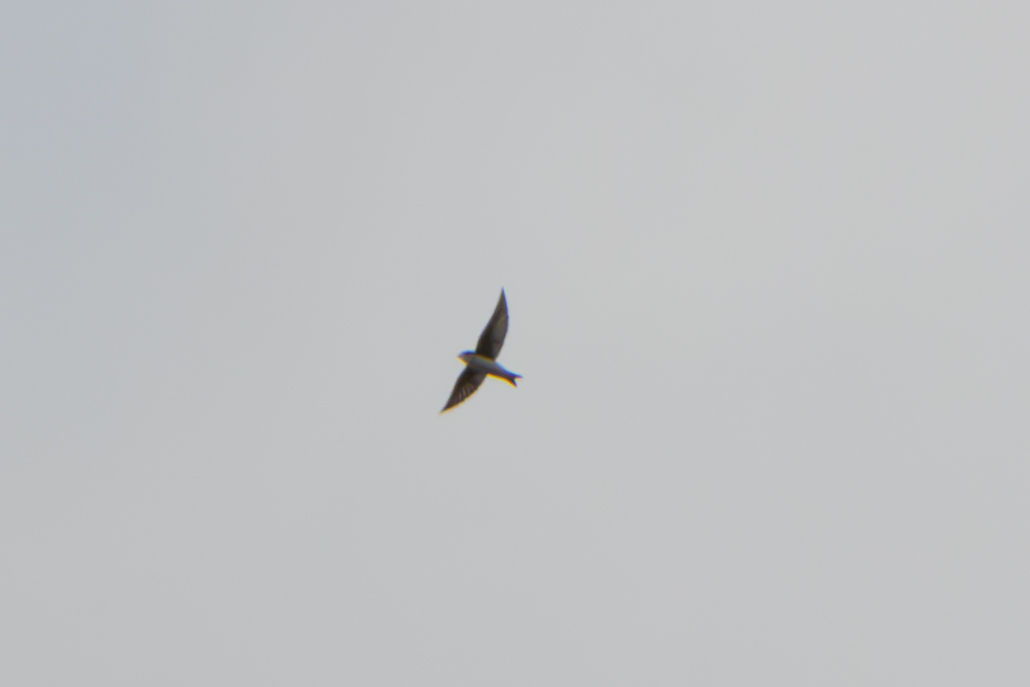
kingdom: Animalia
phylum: Chordata
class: Aves
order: Passeriformes
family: Hirundinidae
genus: Tachycineta
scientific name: Tachycineta bicolor
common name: Tree swallow
